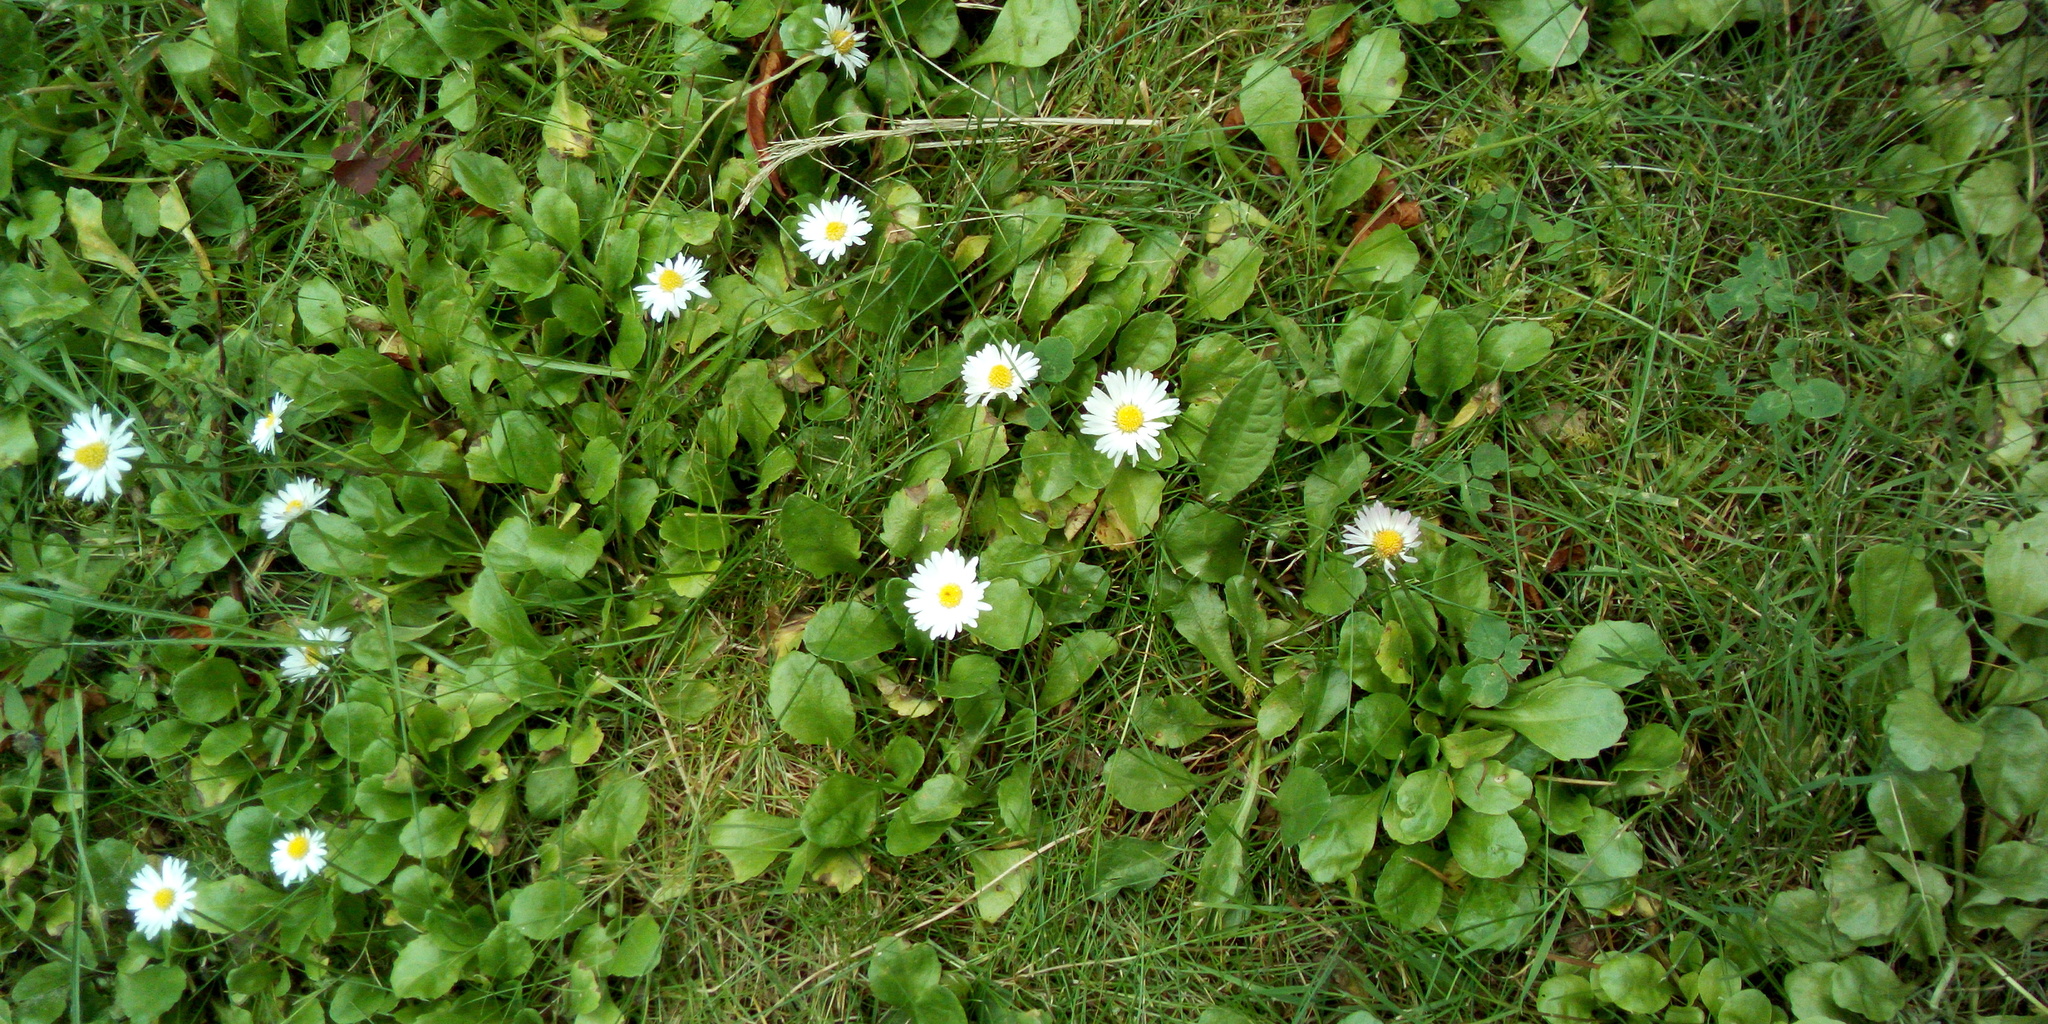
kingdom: Plantae
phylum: Tracheophyta
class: Magnoliopsida
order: Asterales
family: Asteraceae
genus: Bellis
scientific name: Bellis perennis
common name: Lawndaisy
